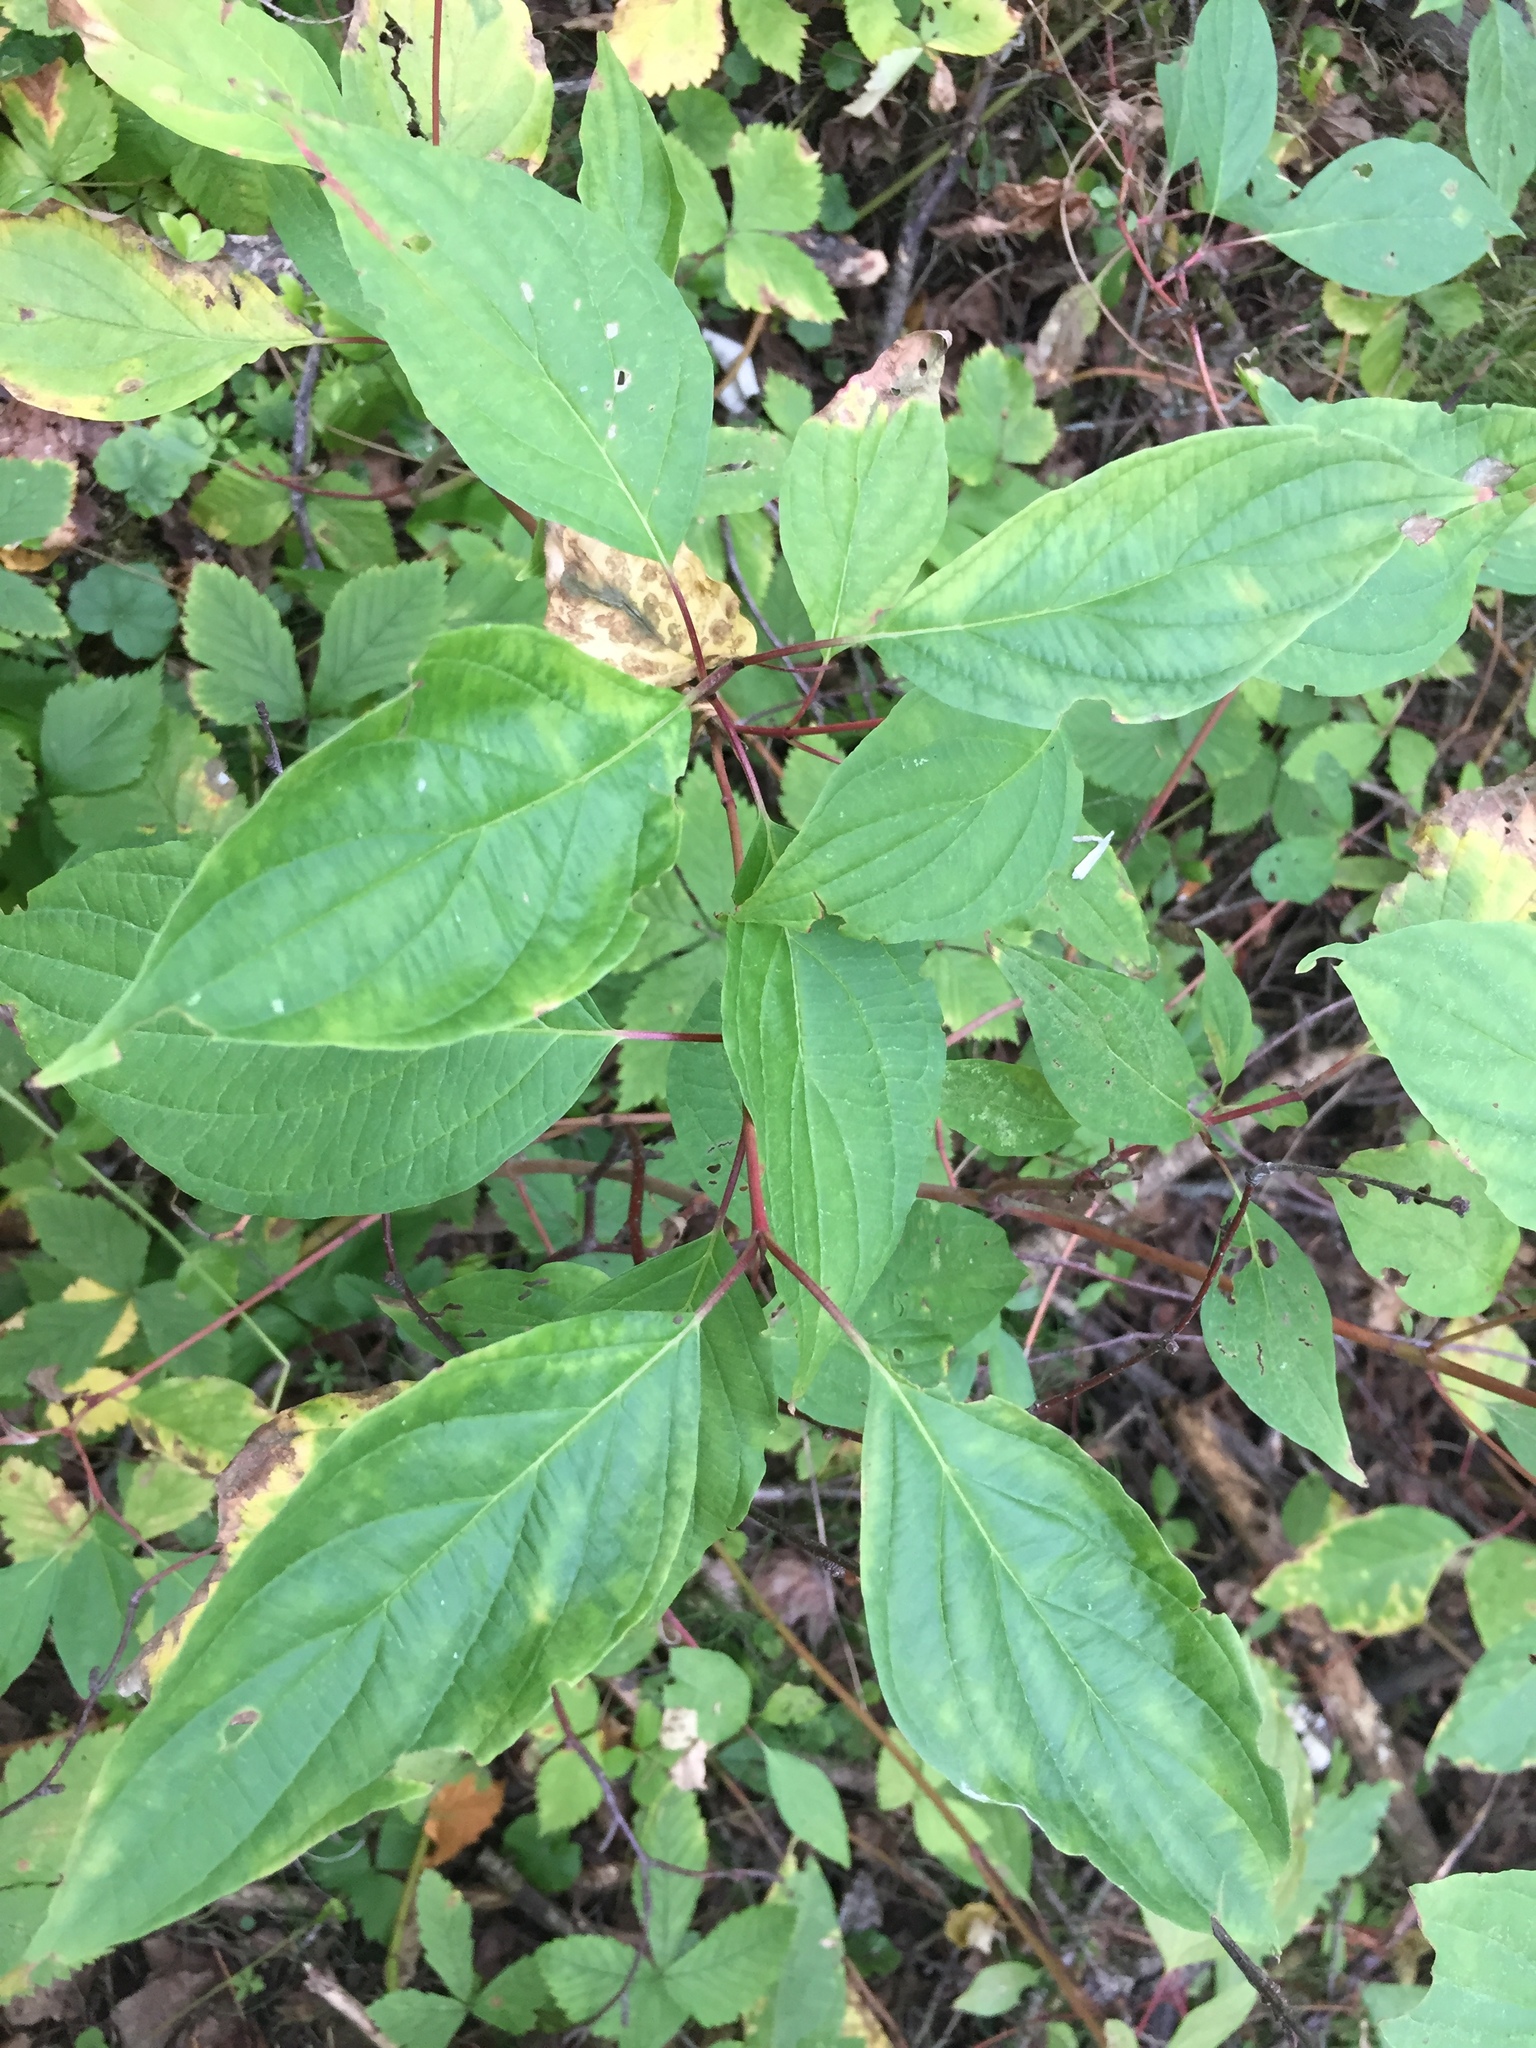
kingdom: Plantae
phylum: Tracheophyta
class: Magnoliopsida
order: Cornales
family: Cornaceae
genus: Cornus
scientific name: Cornus sericea
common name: Red-osier dogwood
